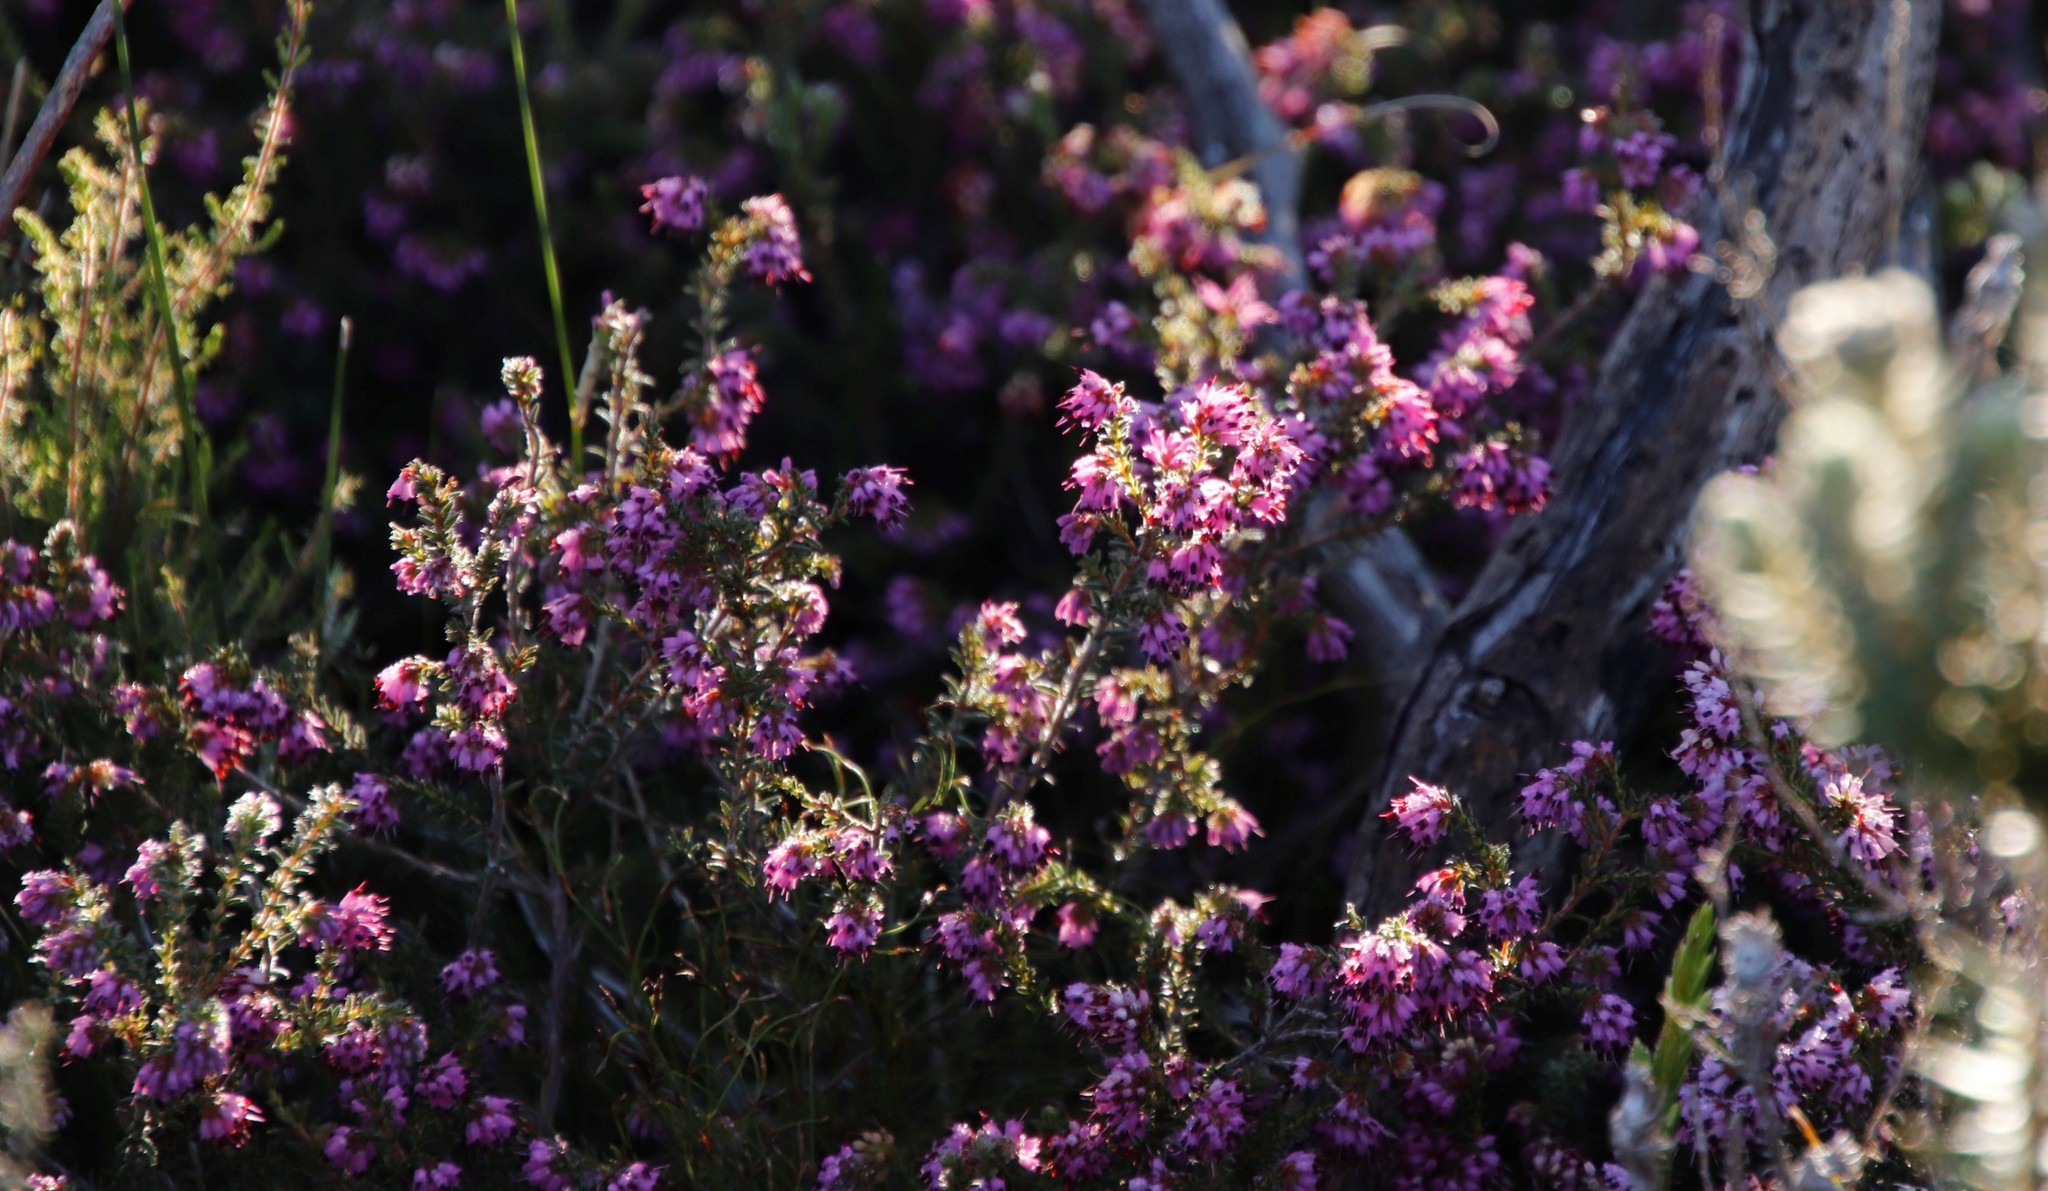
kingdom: Plantae
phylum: Tracheophyta
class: Magnoliopsida
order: Ericales
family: Ericaceae
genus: Erica
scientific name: Erica glabella
